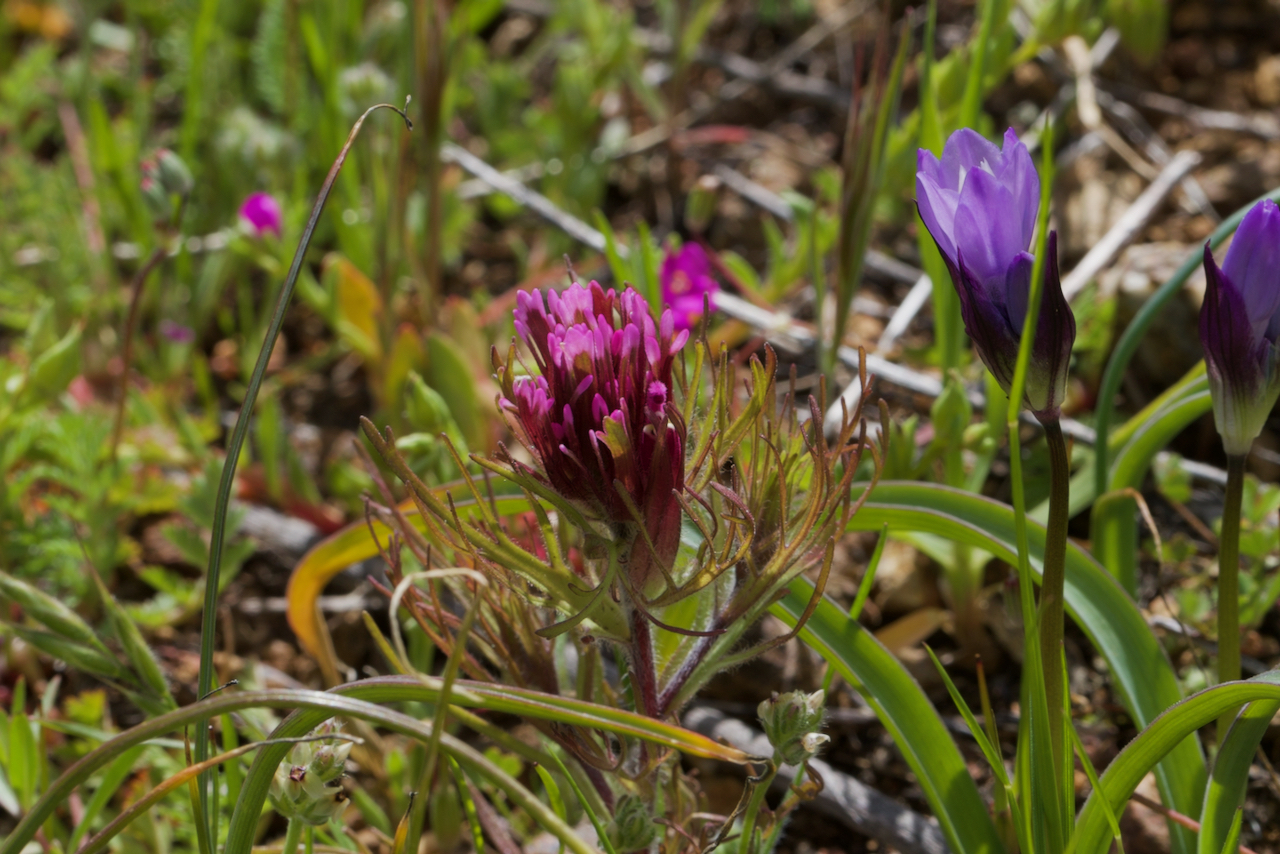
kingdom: Plantae
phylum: Tracheophyta
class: Magnoliopsida
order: Lamiales
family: Orobanchaceae
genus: Castilleja
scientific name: Castilleja exserta
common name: Purple owl-clover
